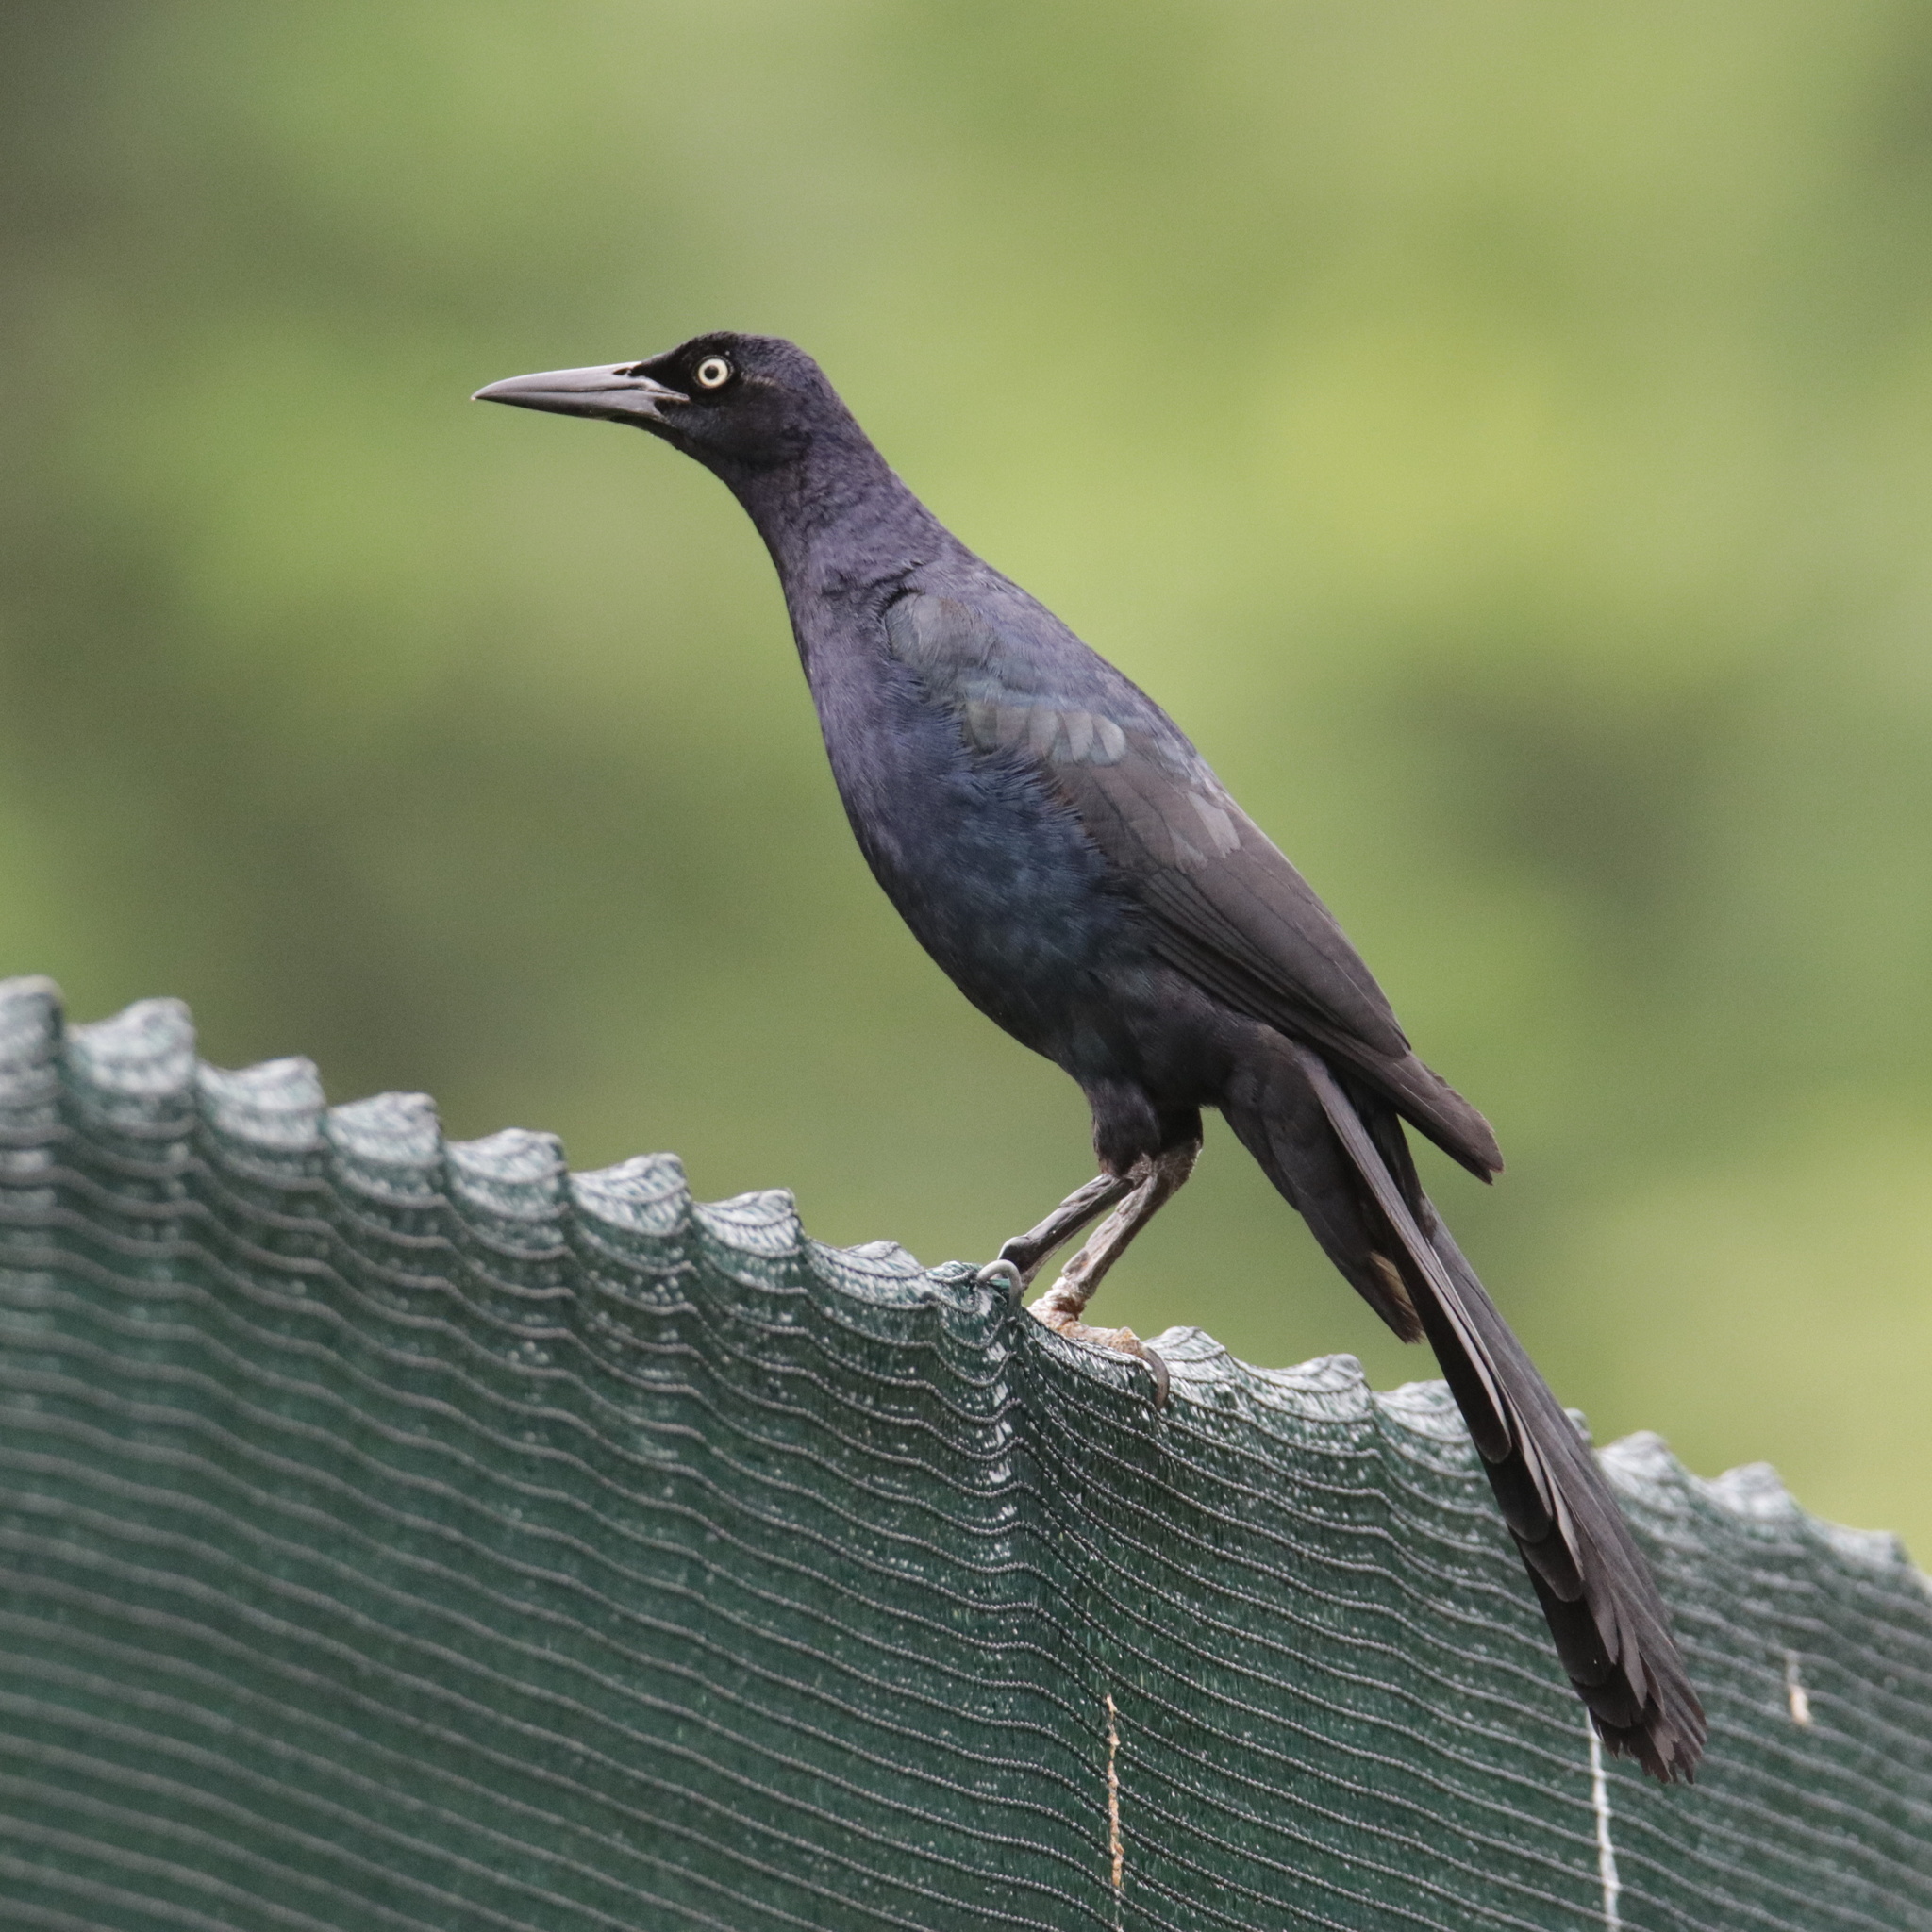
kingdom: Animalia
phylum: Chordata
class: Aves
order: Passeriformes
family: Icteridae
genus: Quiscalus
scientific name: Quiscalus mexicanus
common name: Great-tailed grackle
